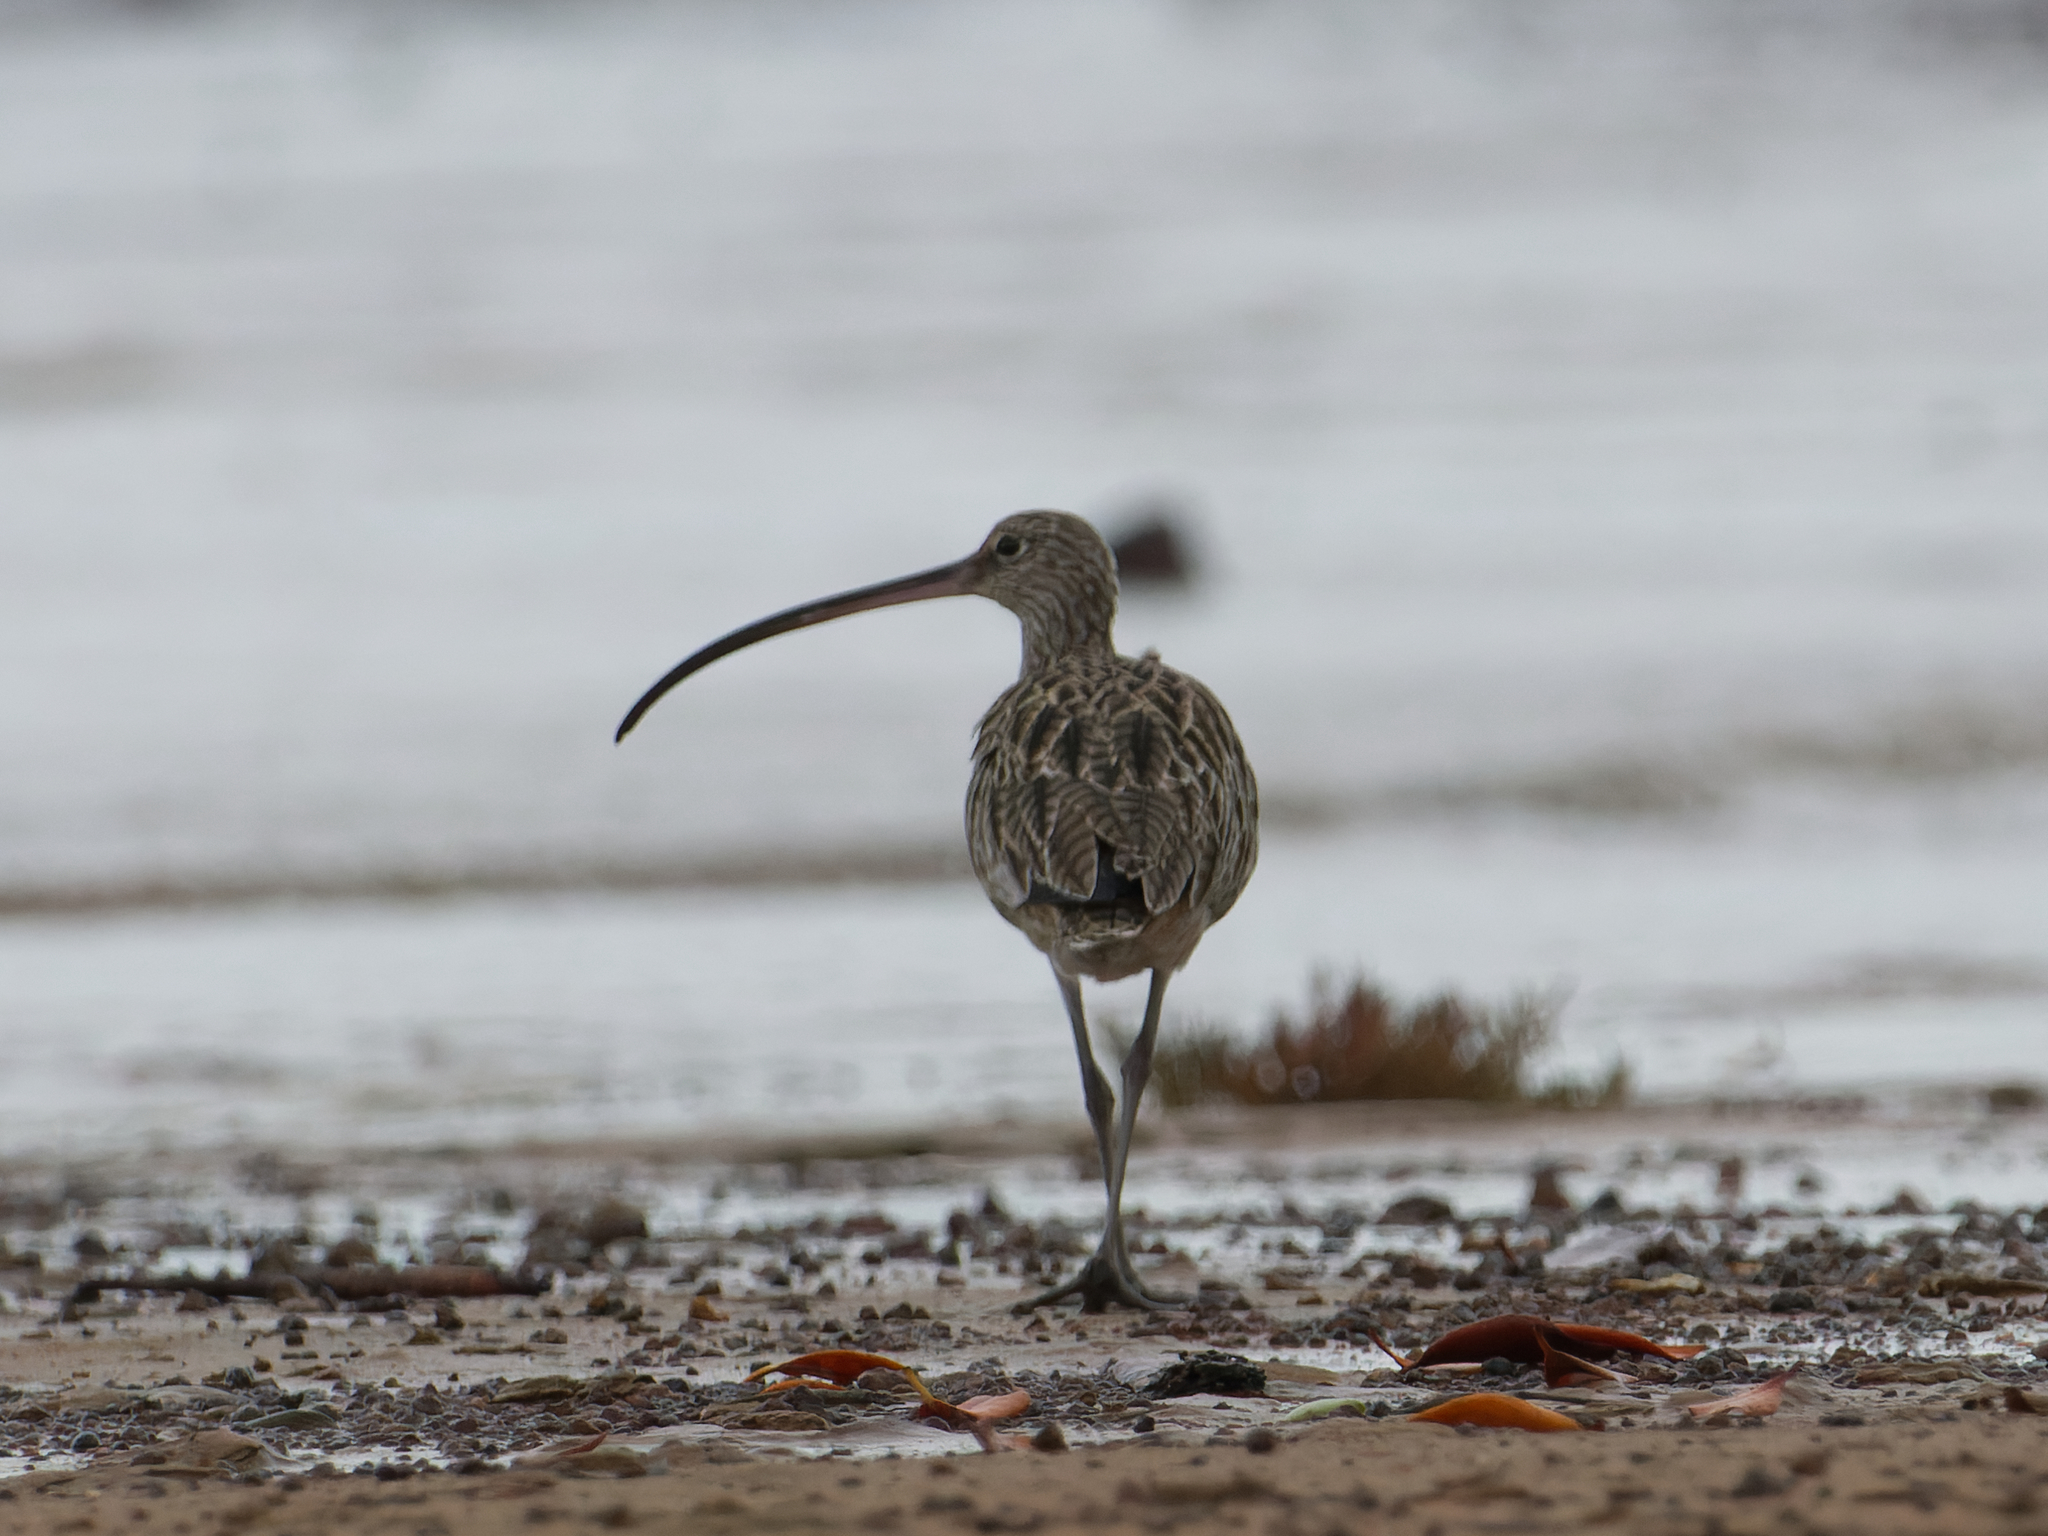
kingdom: Animalia
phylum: Chordata
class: Aves
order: Charadriiformes
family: Scolopacidae
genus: Numenius
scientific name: Numenius madagascariensis
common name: Far eastern curlew
